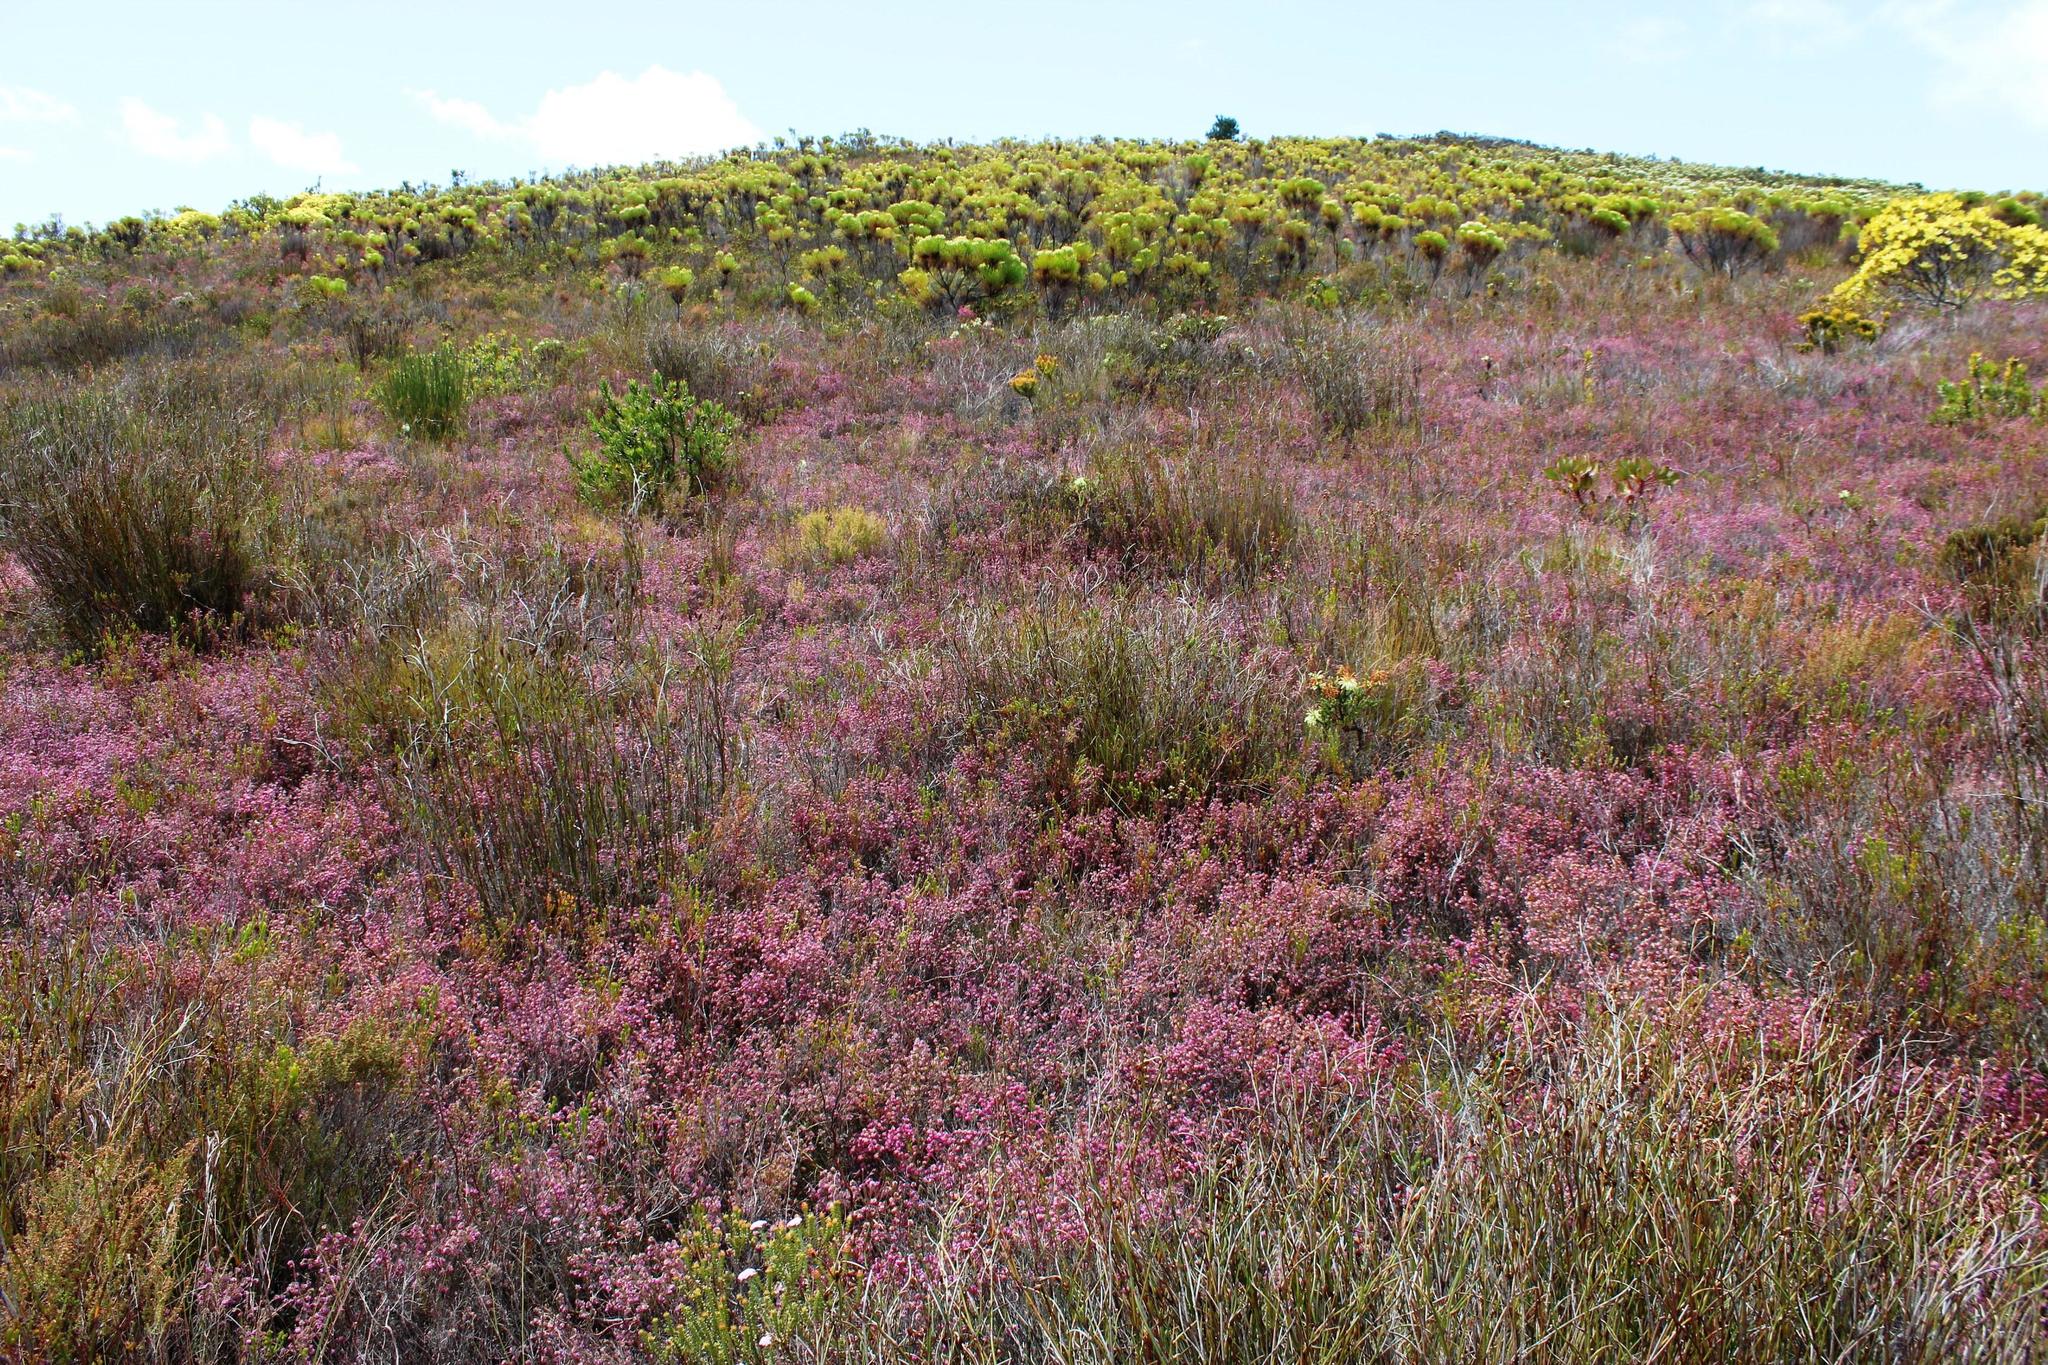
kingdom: Plantae
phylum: Tracheophyta
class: Magnoliopsida
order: Ericales
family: Ericaceae
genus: Erica
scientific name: Erica similis
